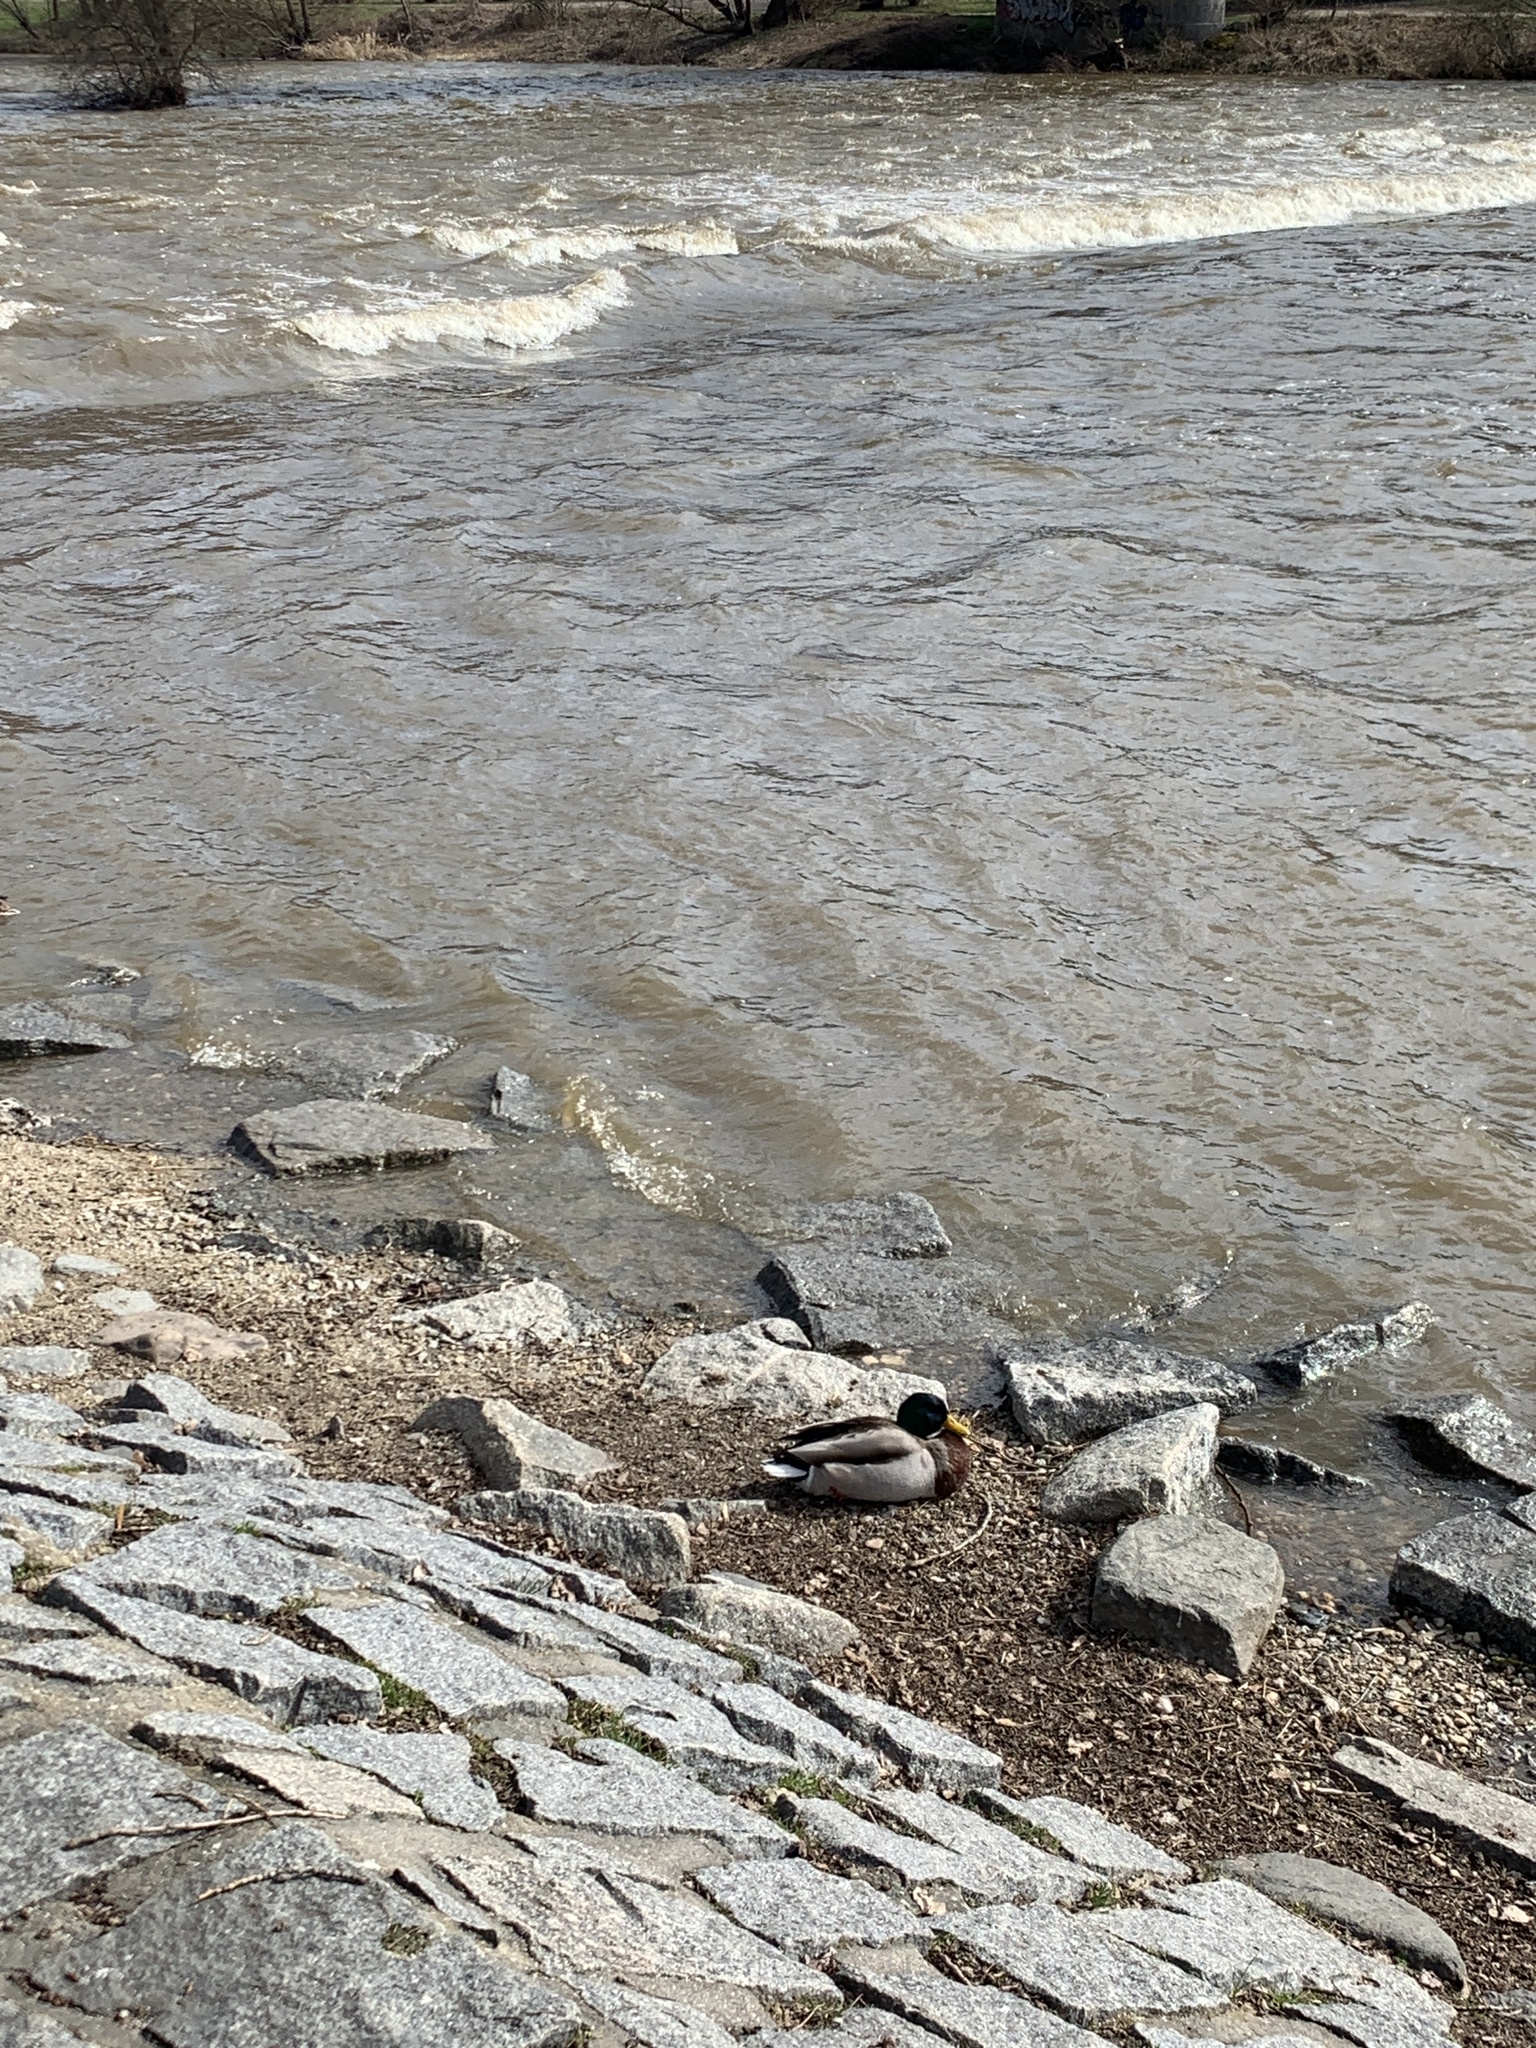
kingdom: Animalia
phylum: Chordata
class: Aves
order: Anseriformes
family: Anatidae
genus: Anas
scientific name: Anas platyrhynchos
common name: Mallard
